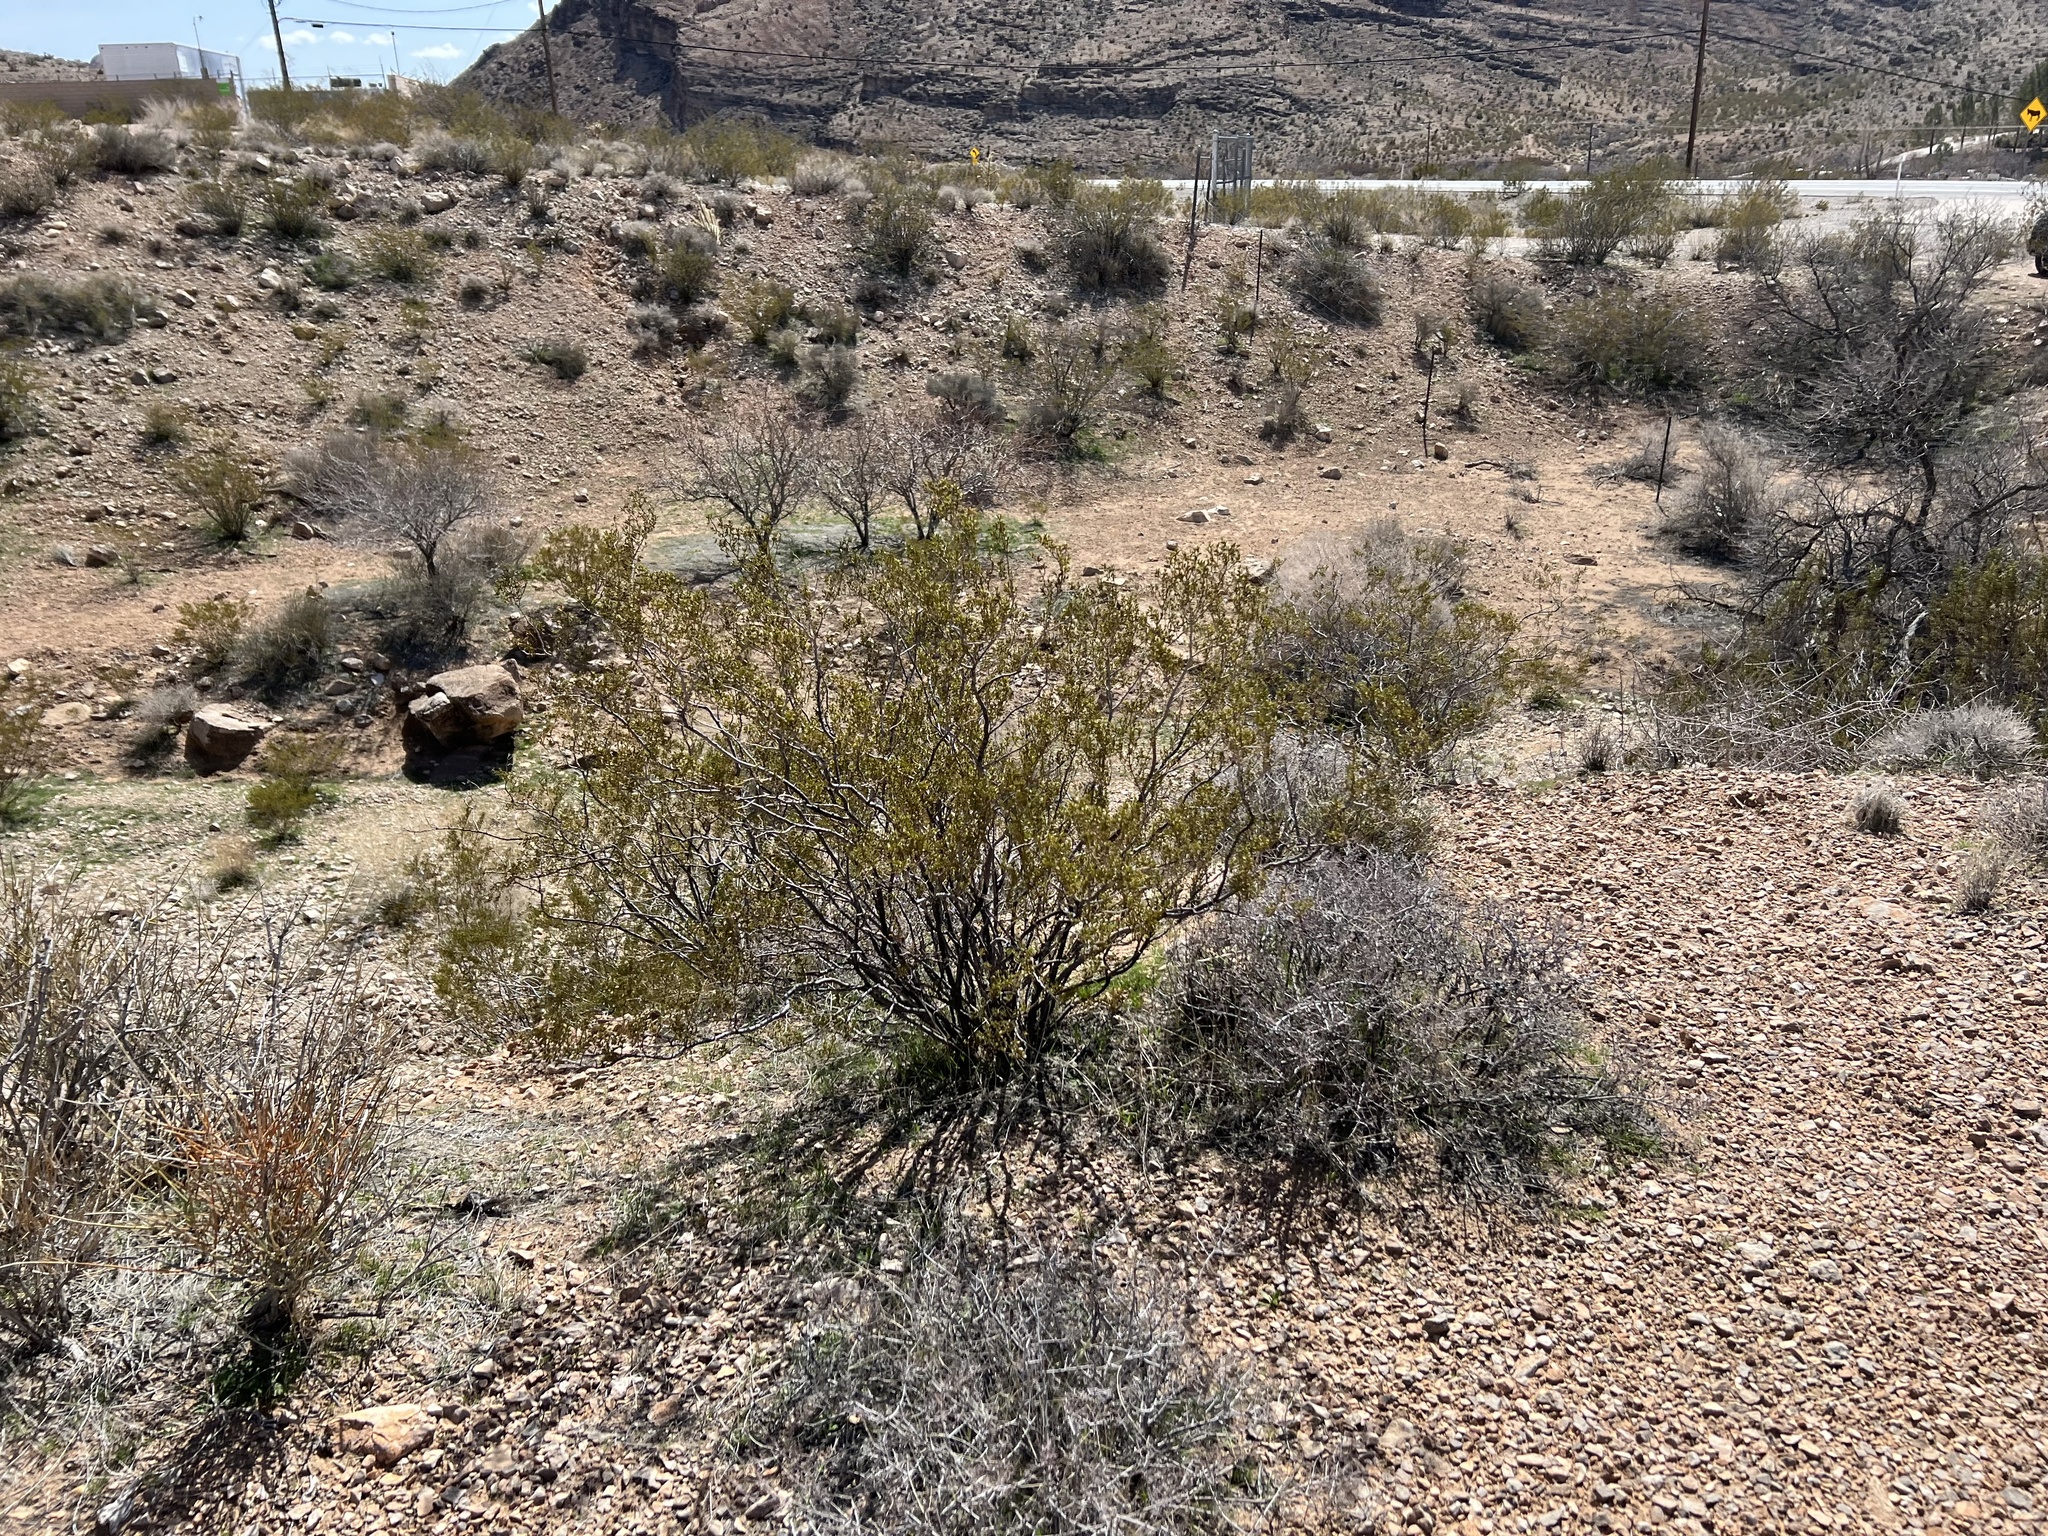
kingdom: Plantae
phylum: Tracheophyta
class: Magnoliopsida
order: Zygophyllales
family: Zygophyllaceae
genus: Larrea
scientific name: Larrea tridentata
